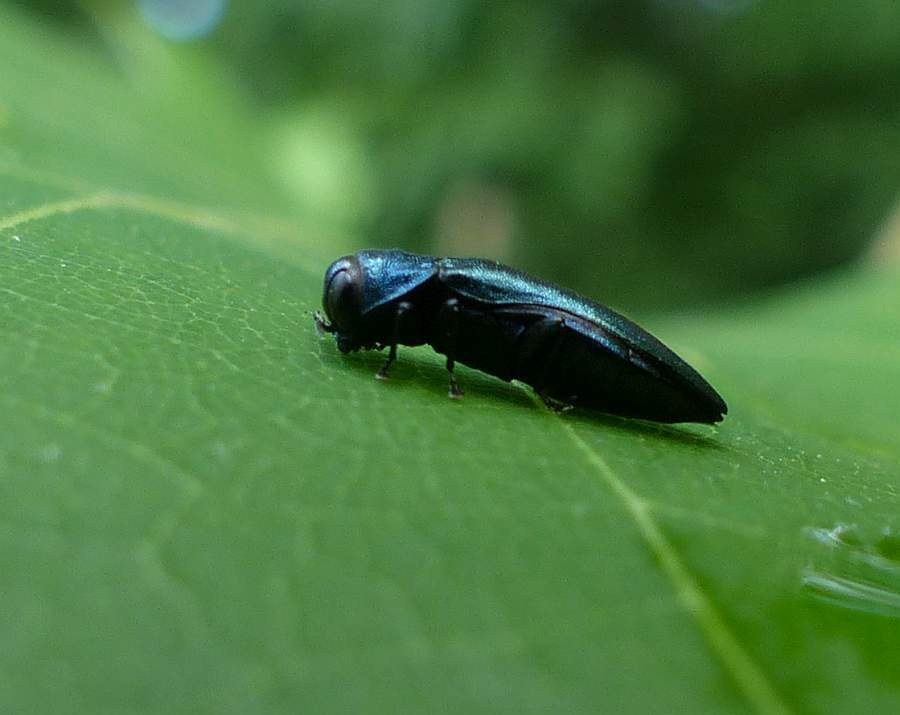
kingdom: Animalia
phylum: Arthropoda
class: Insecta
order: Coleoptera
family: Buprestidae
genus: Agrilus
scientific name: Agrilus cyanescens
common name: Bluish borer beetle
